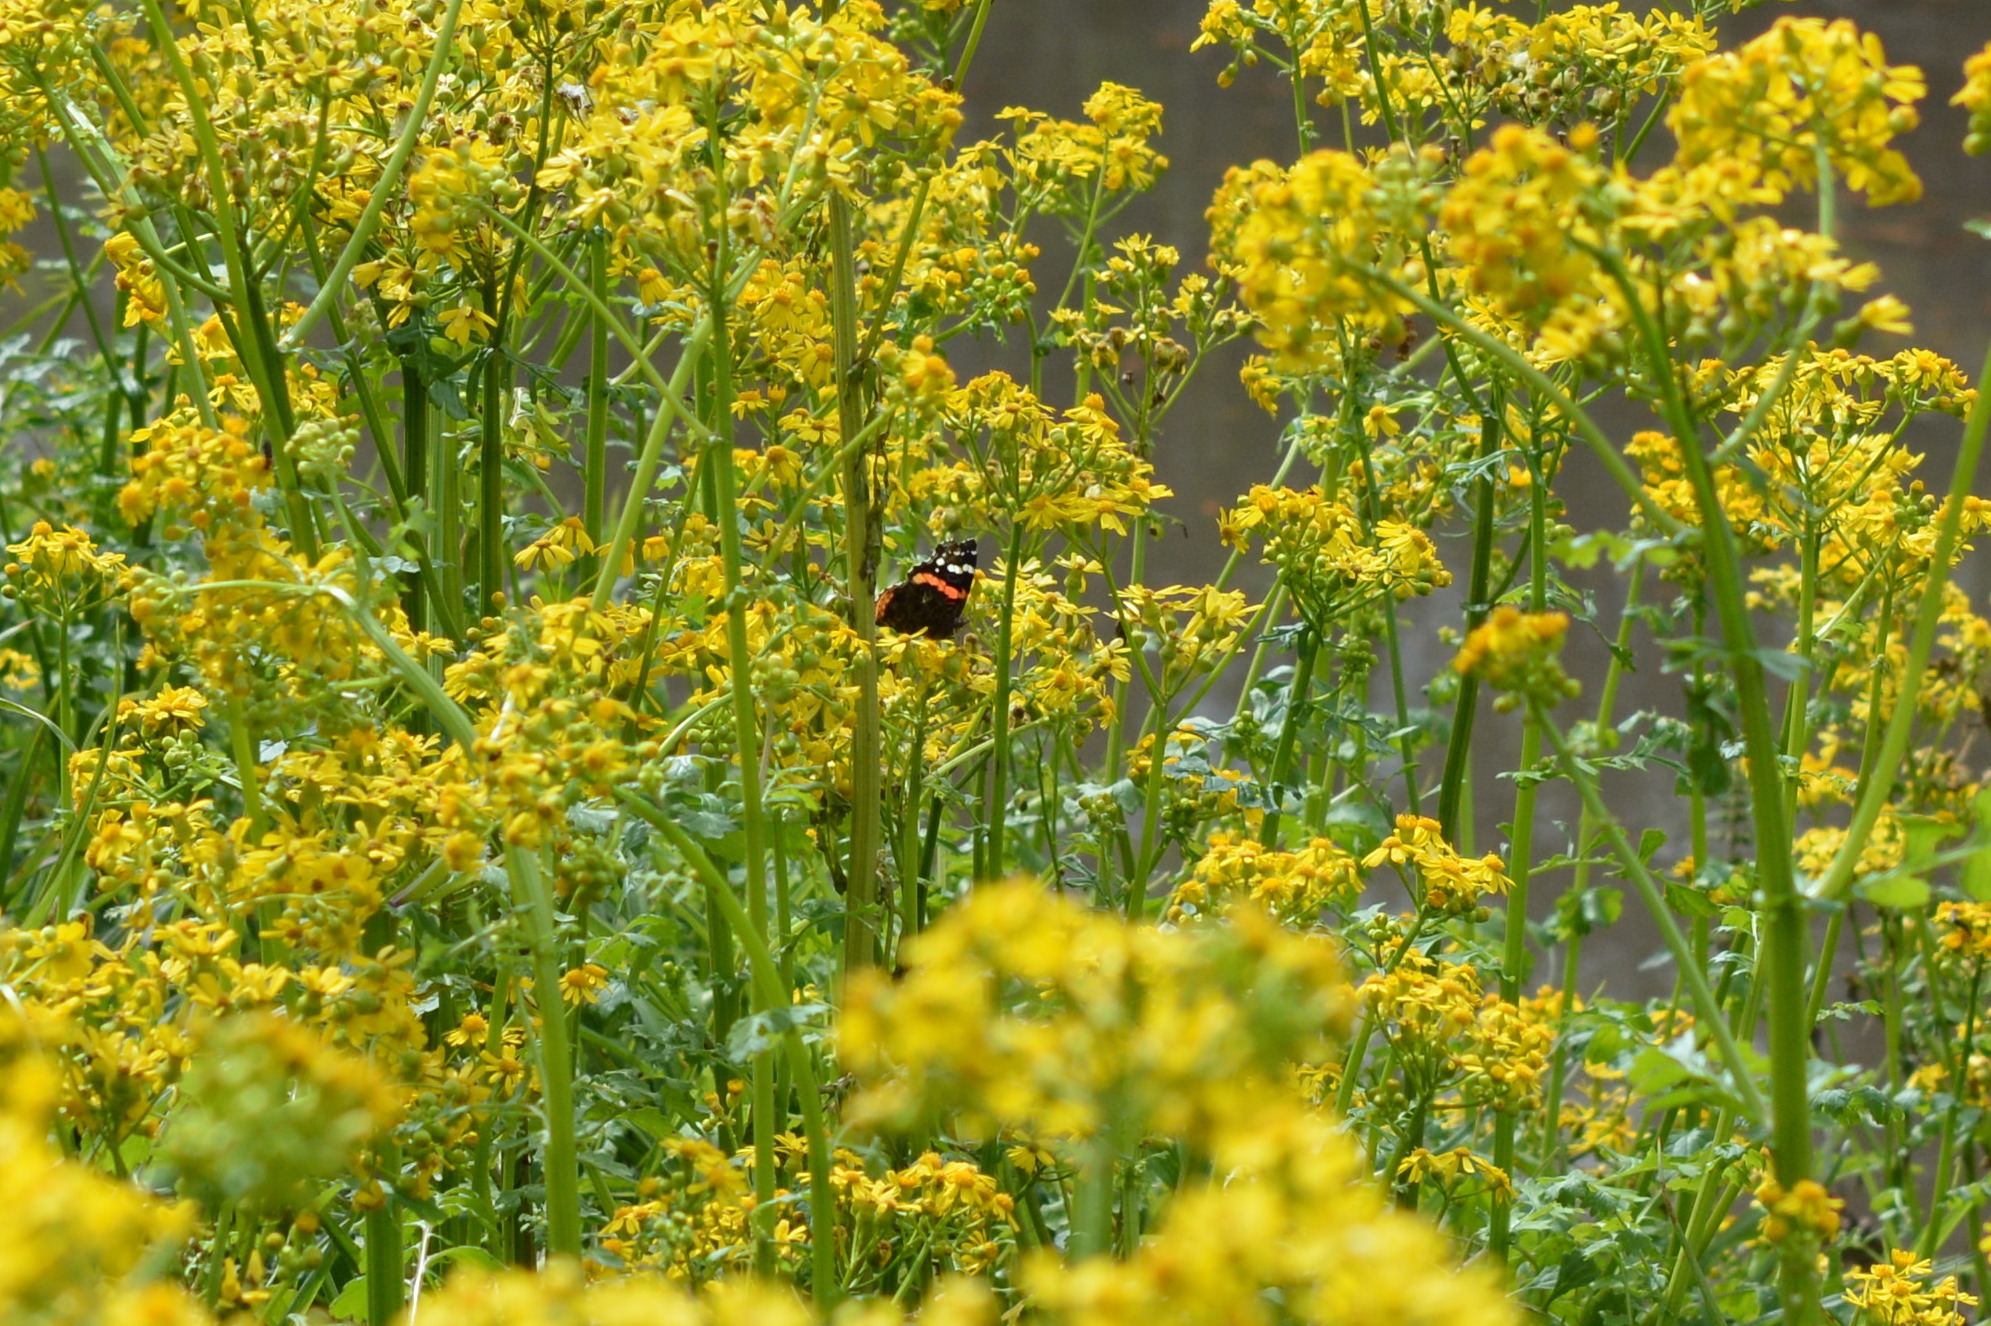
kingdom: Animalia
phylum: Arthropoda
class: Insecta
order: Lepidoptera
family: Nymphalidae
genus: Vanessa
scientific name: Vanessa atalanta
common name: Red admiral
